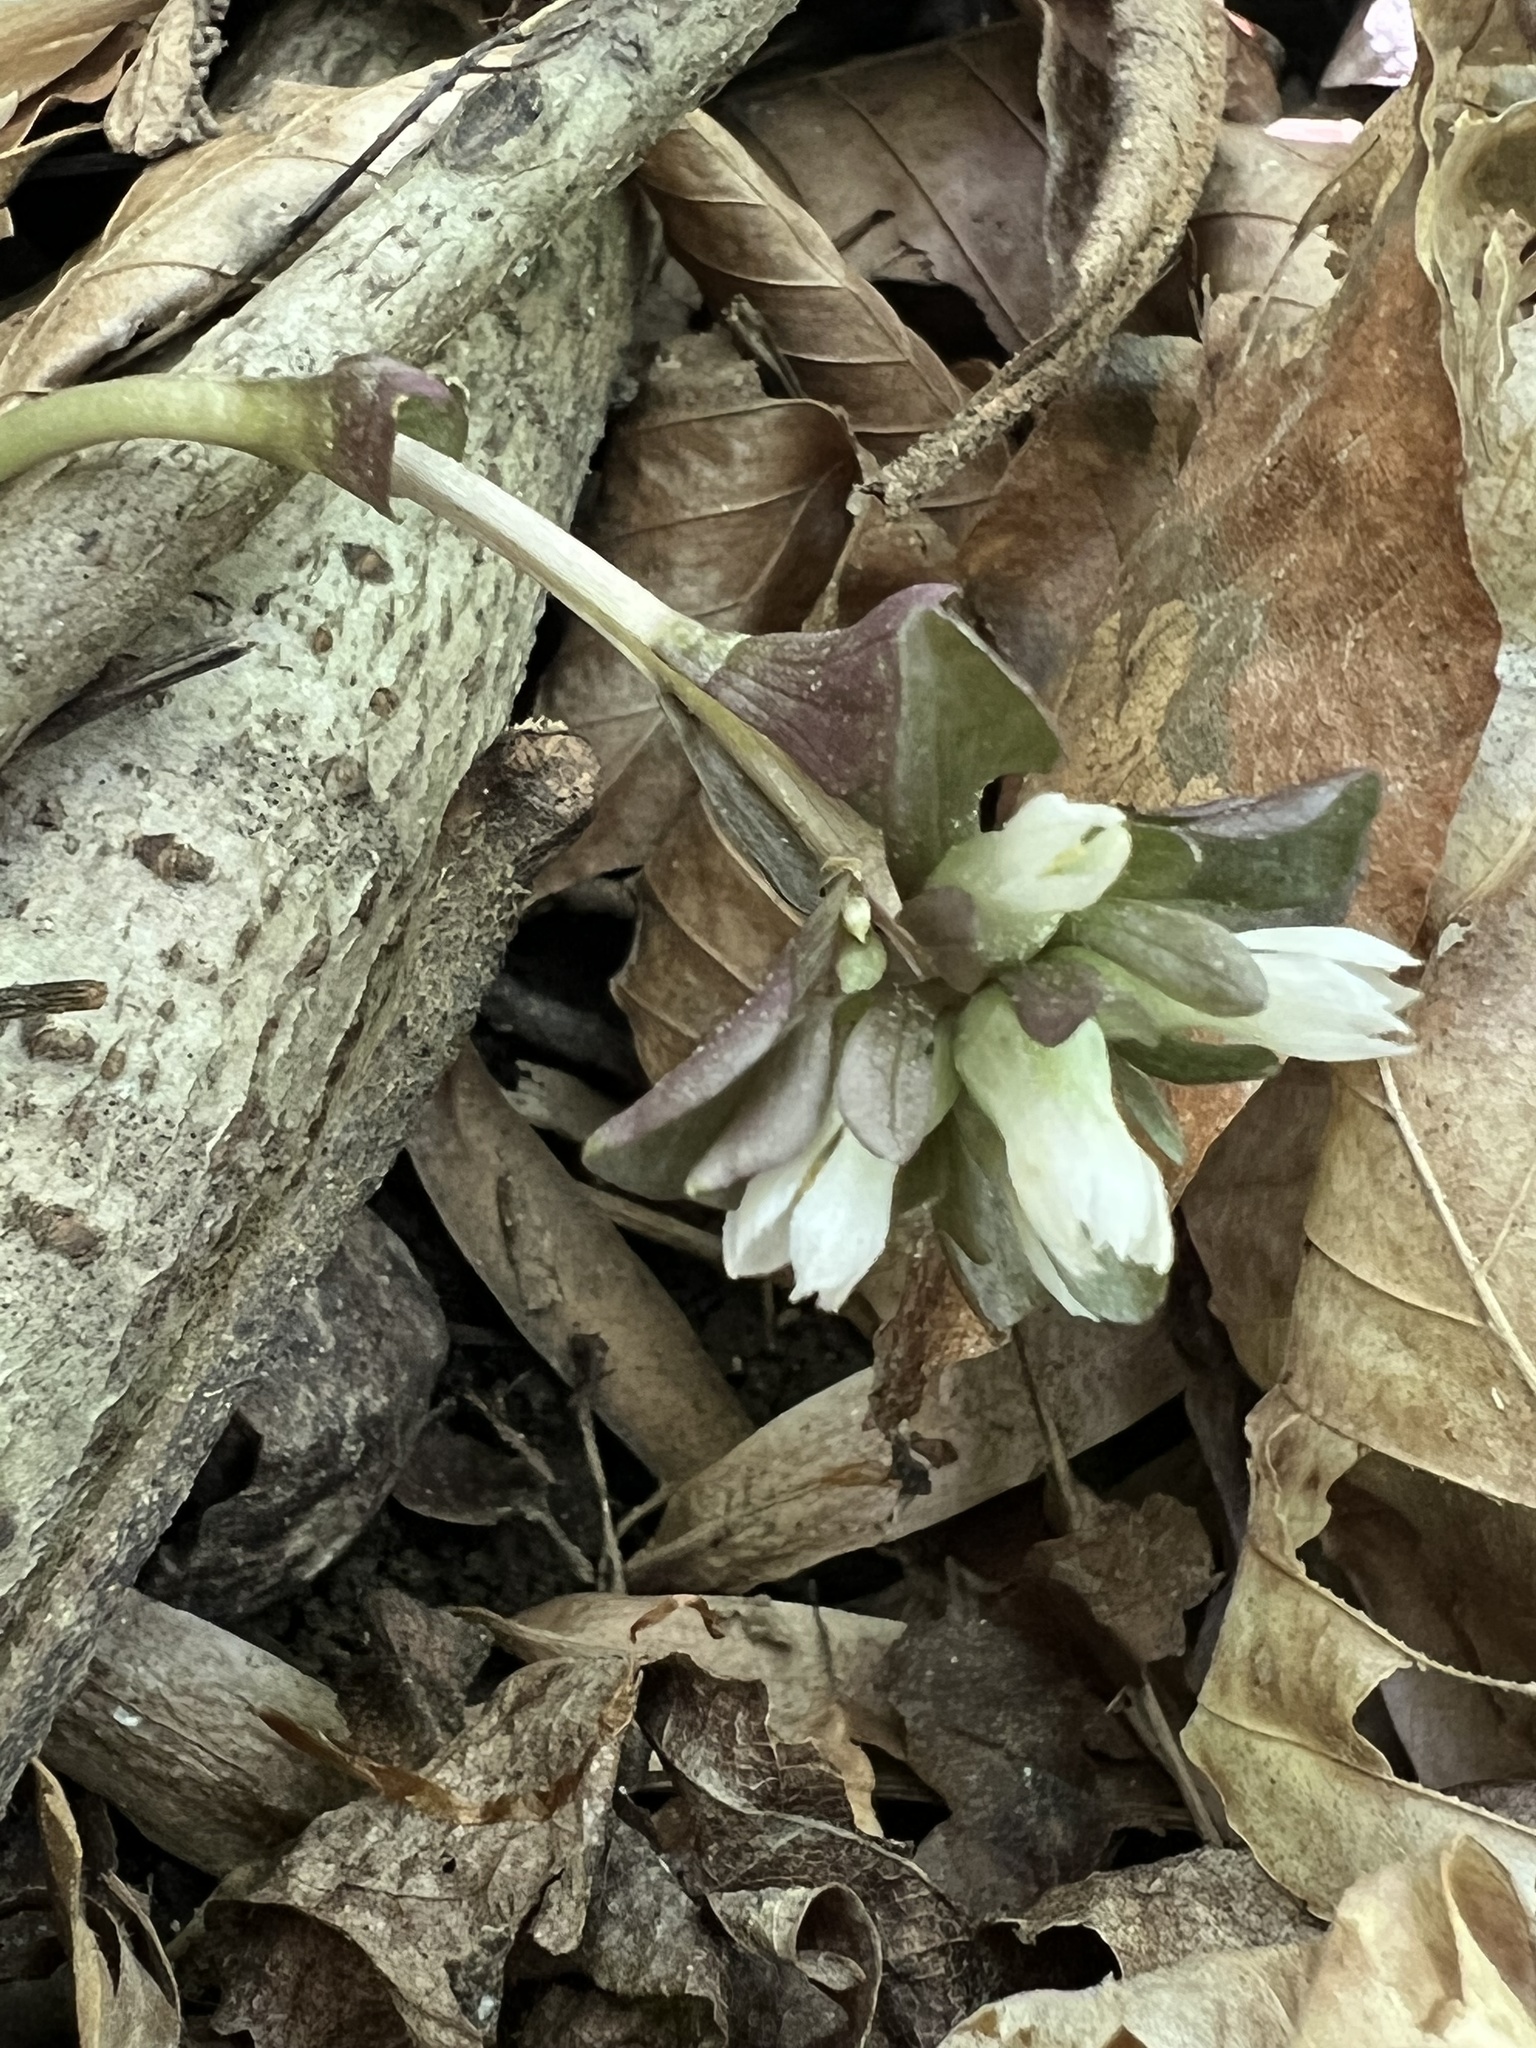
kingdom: Plantae
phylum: Tracheophyta
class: Magnoliopsida
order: Gentianales
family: Gentianaceae
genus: Obolaria
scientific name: Obolaria virginica
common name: Pennywort
